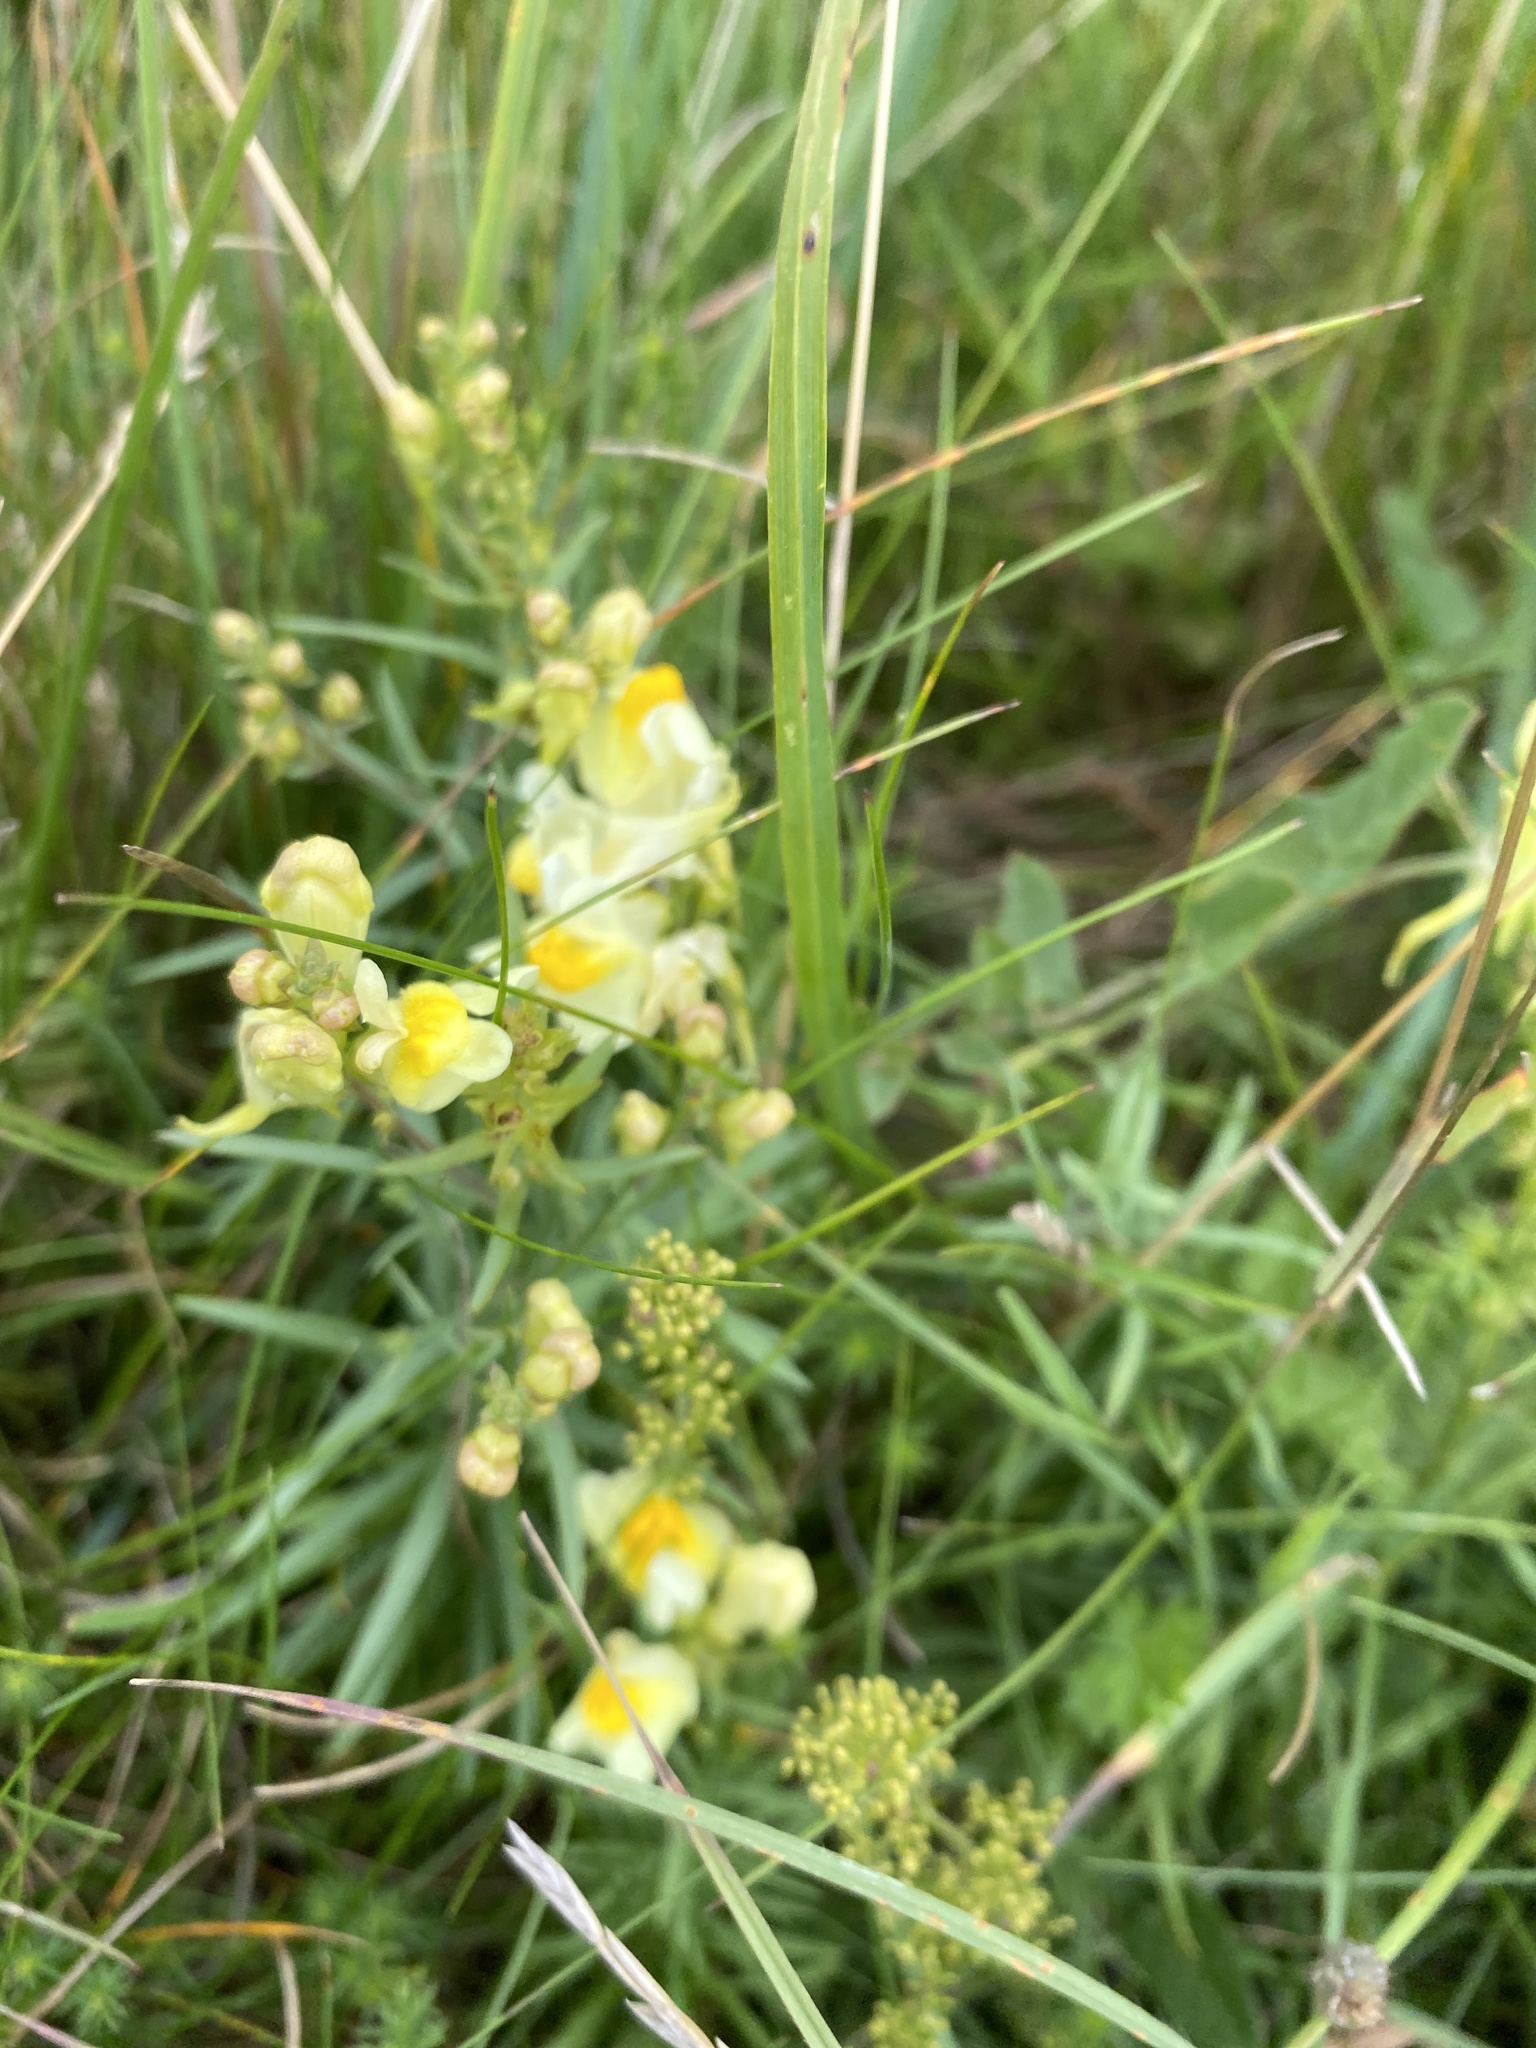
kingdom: Plantae
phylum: Tracheophyta
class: Magnoliopsida
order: Lamiales
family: Plantaginaceae
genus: Linaria
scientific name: Linaria vulgaris
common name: Butter and eggs
